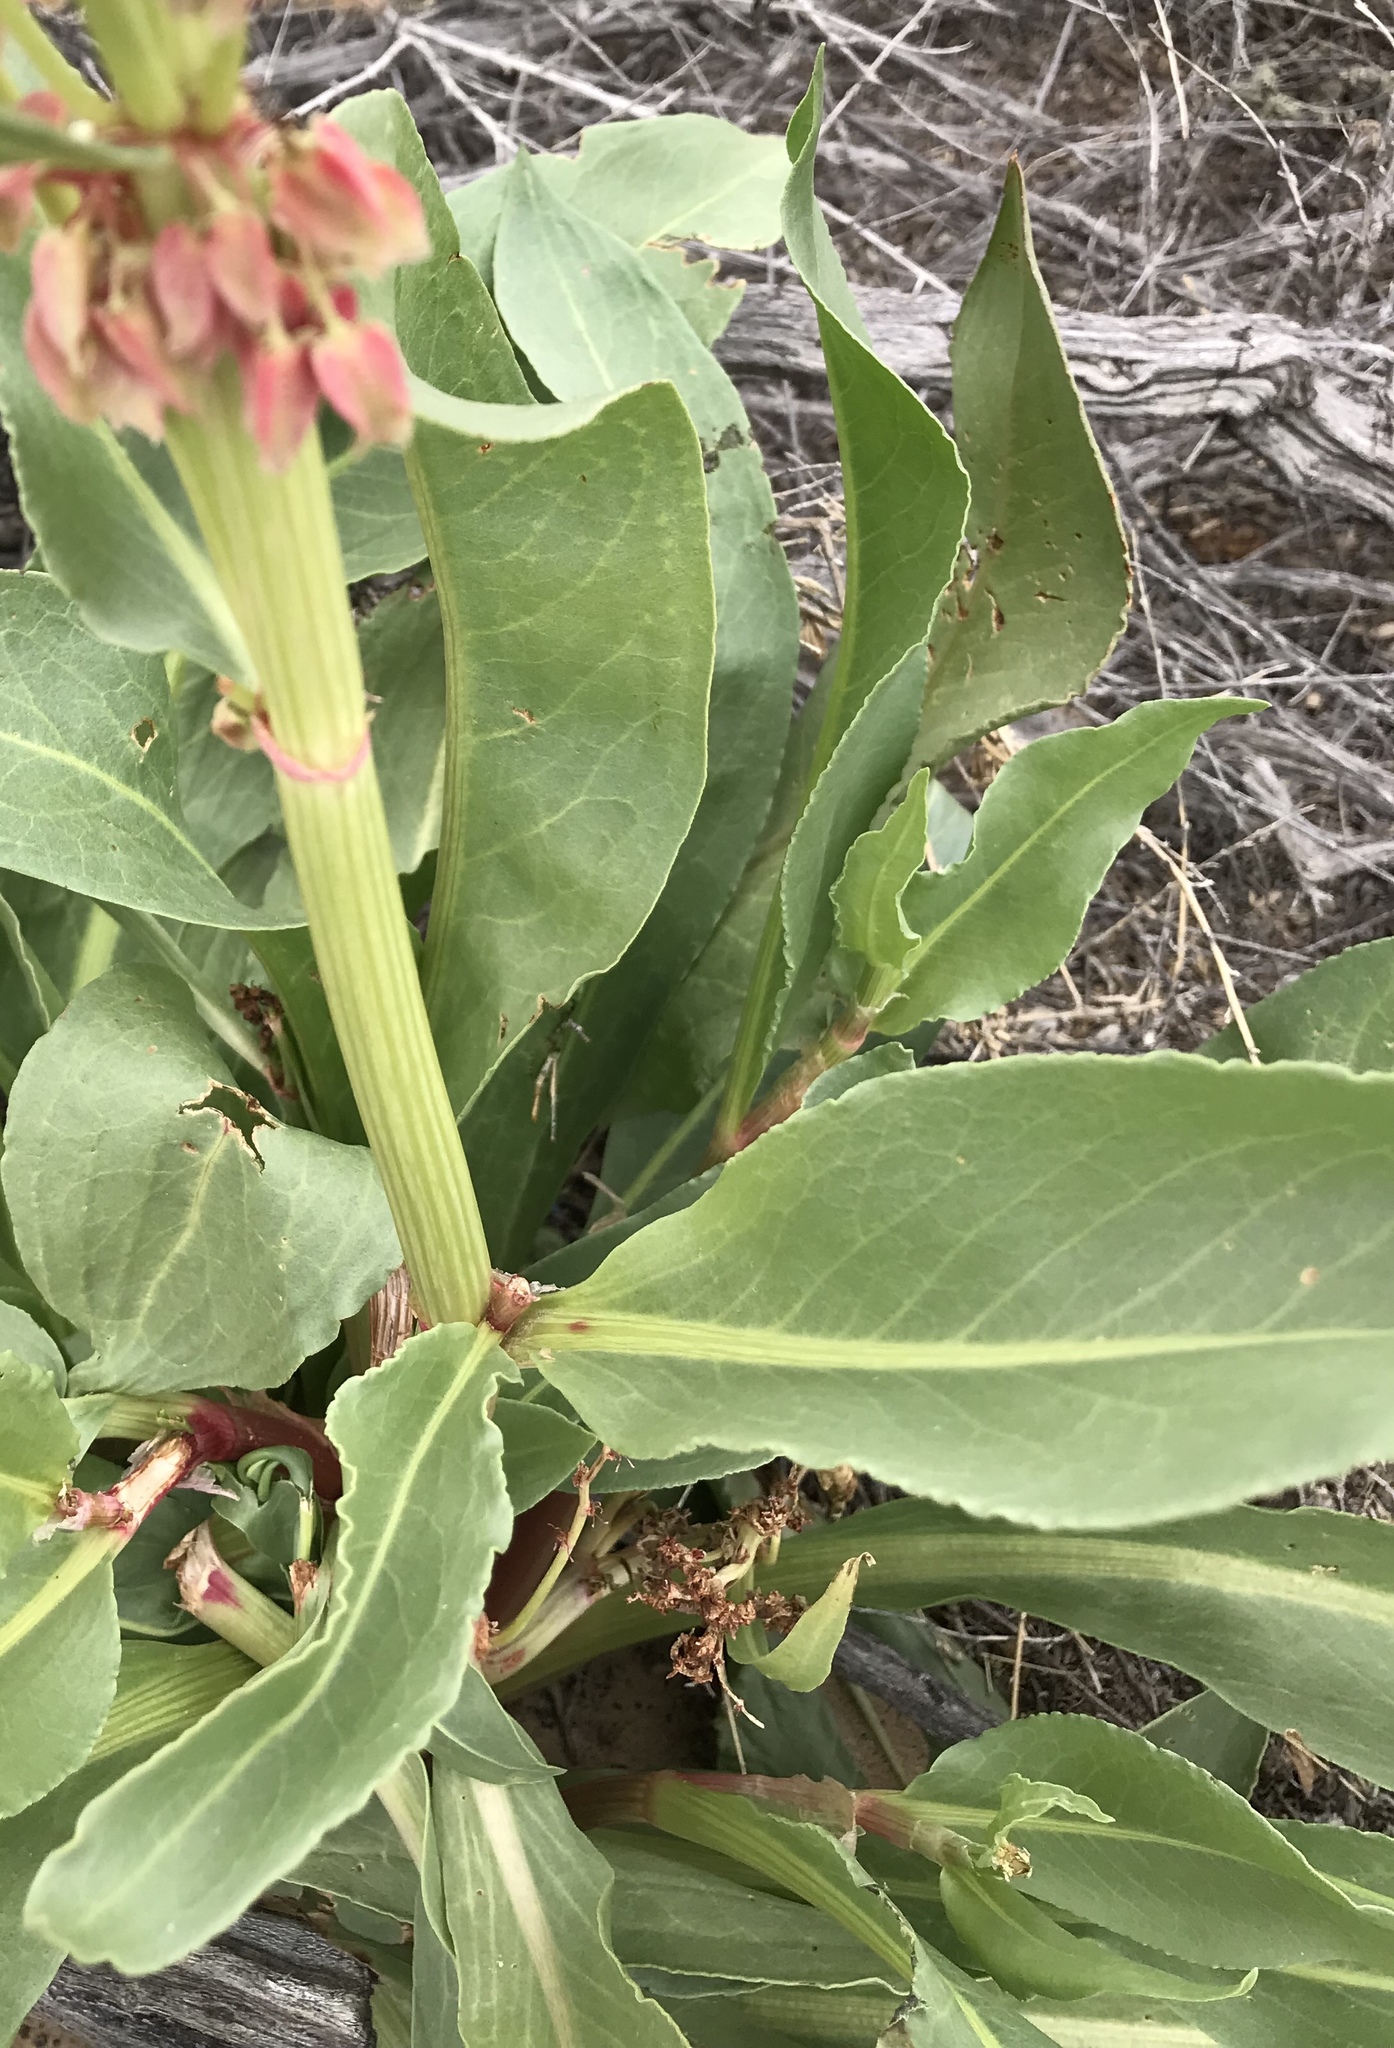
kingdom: Plantae
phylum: Tracheophyta
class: Magnoliopsida
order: Caryophyllales
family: Polygonaceae
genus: Rumex
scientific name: Rumex hymenosepalus
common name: Ganagra
